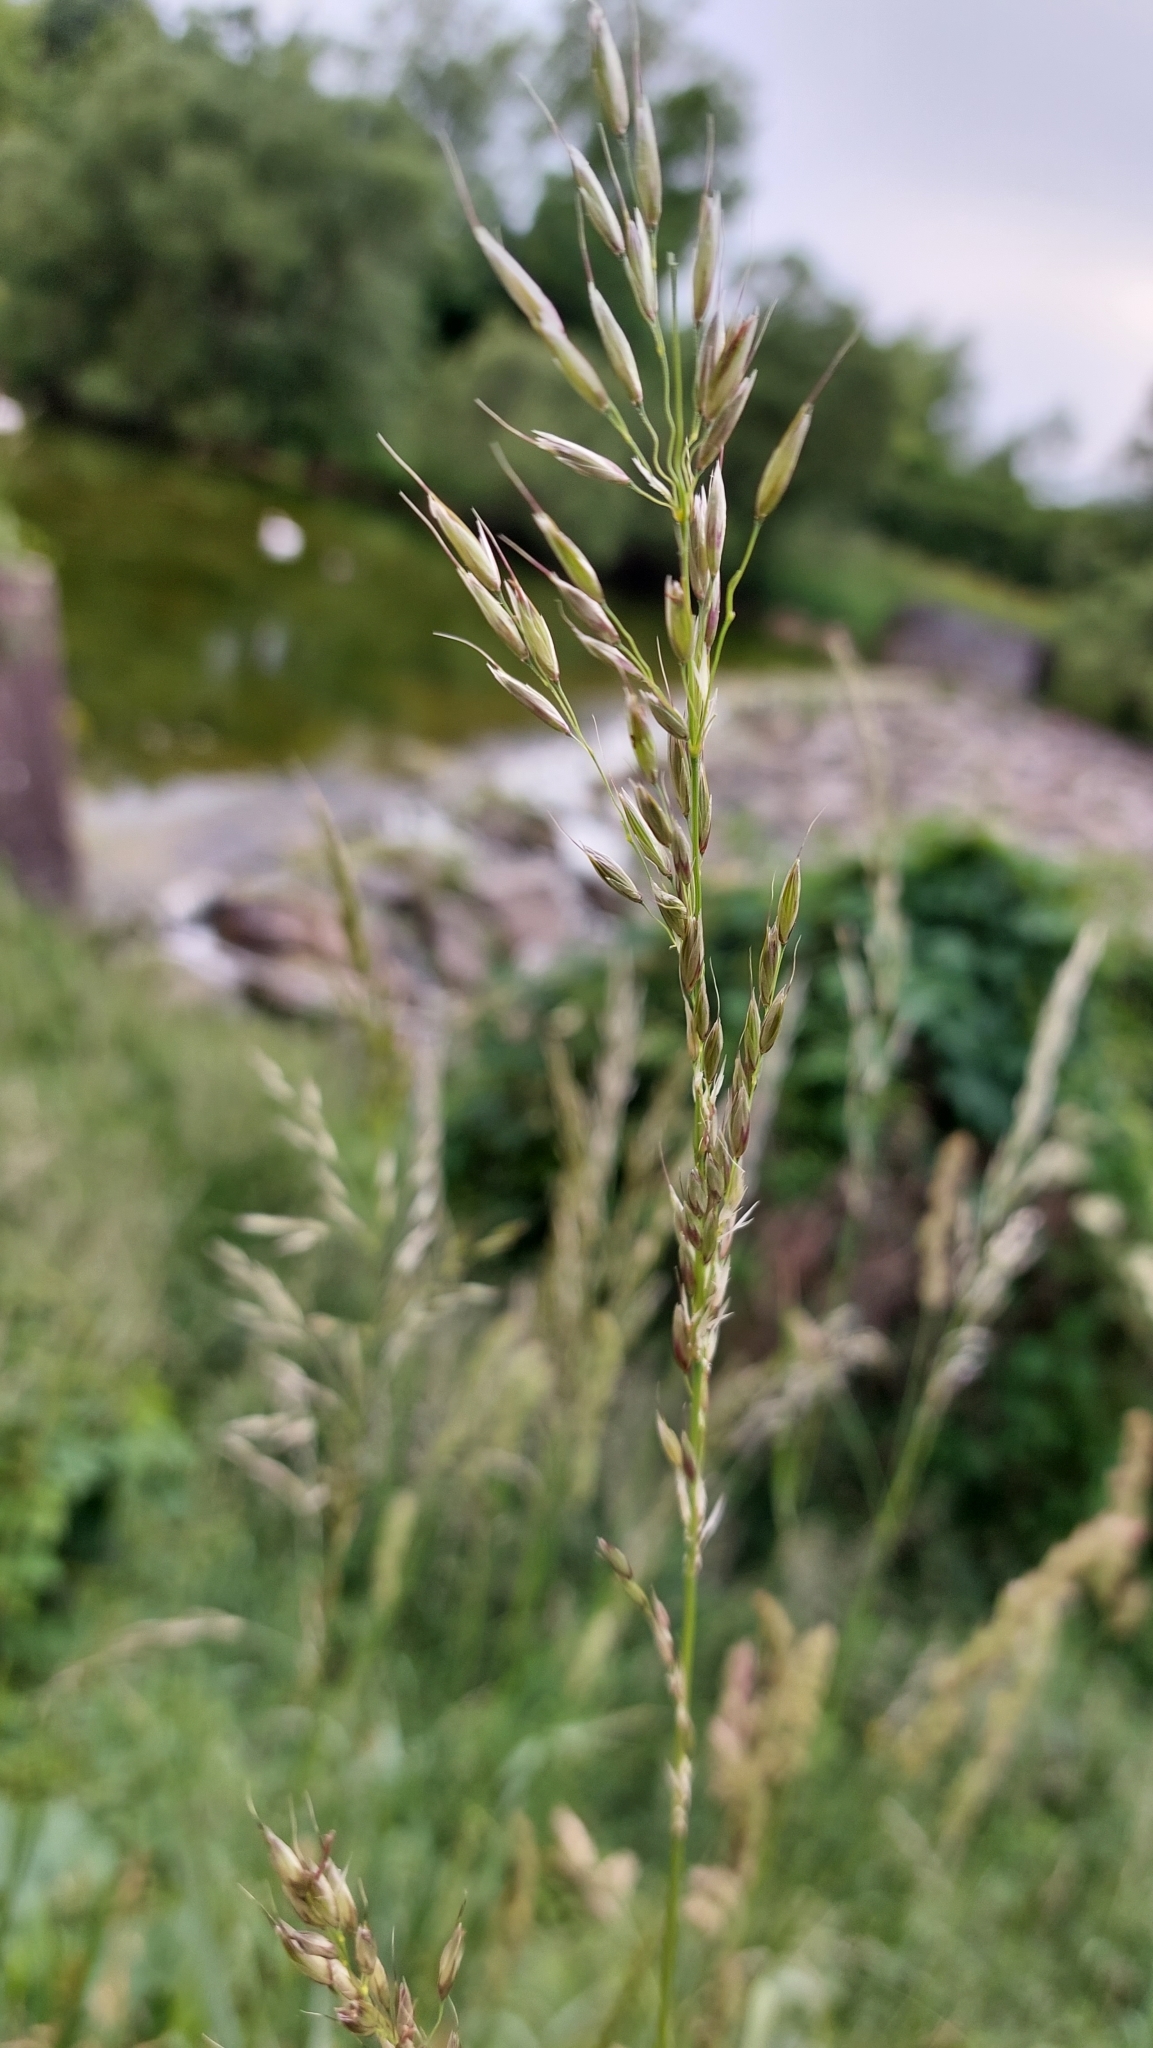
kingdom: Plantae
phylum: Tracheophyta
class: Liliopsida
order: Poales
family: Poaceae
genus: Arrhenatherum
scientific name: Arrhenatherum elatius
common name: Tall oatgrass
